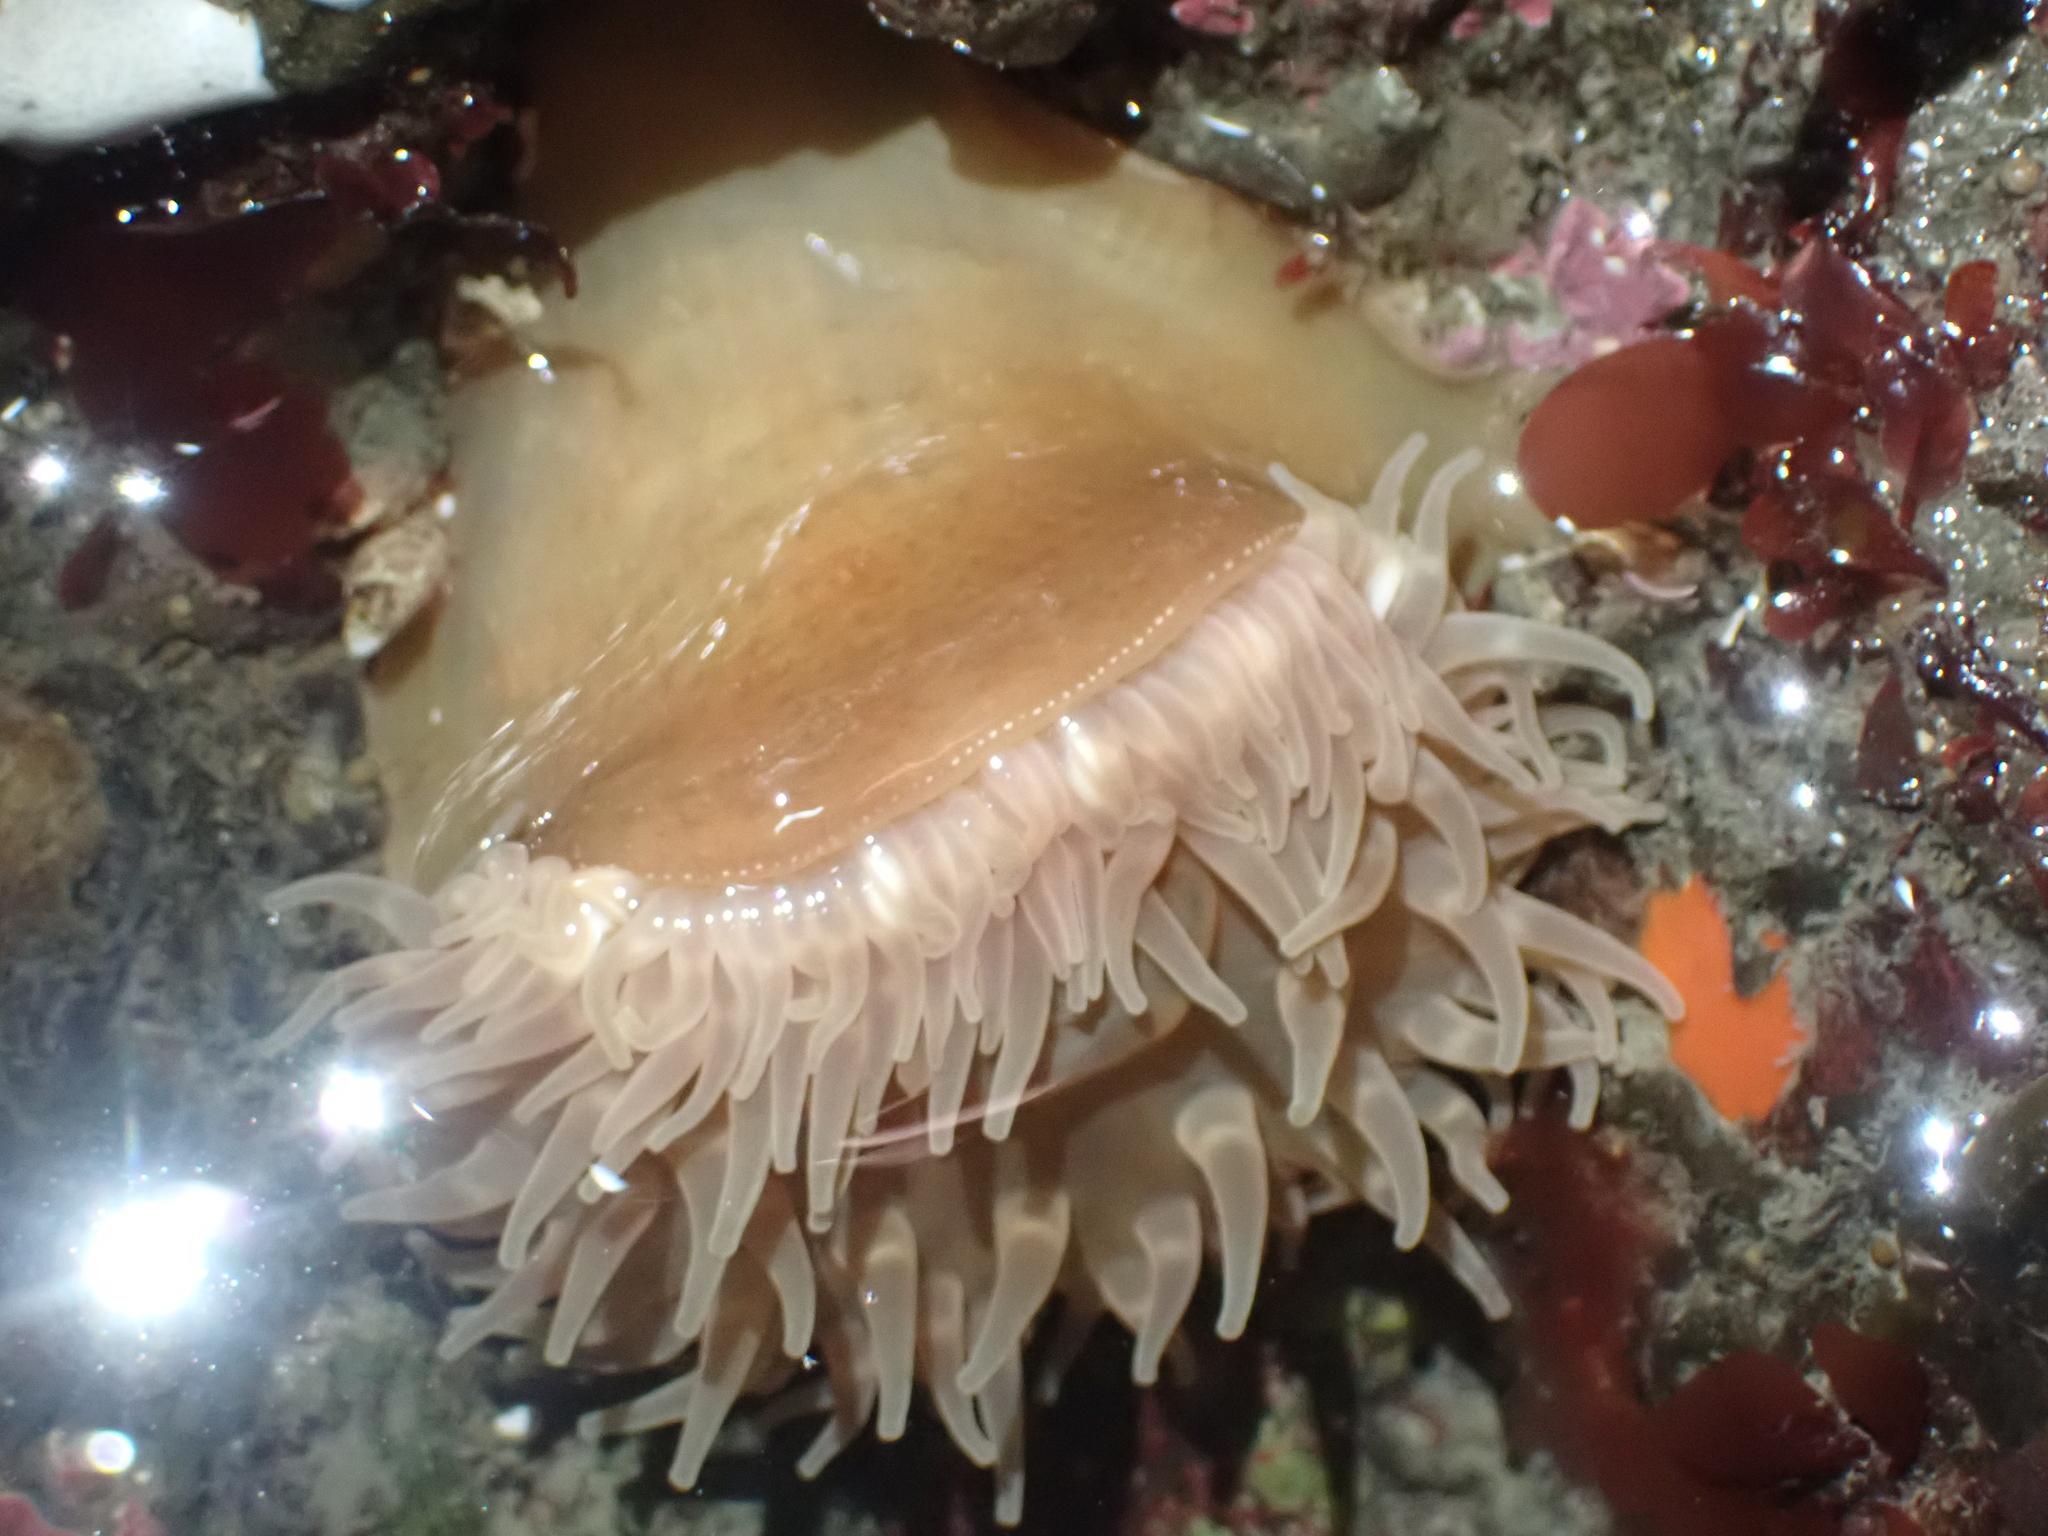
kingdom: Animalia
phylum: Cnidaria
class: Anthozoa
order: Actiniaria
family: Actiniidae
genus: Urticina
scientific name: Urticina grebelnyi
